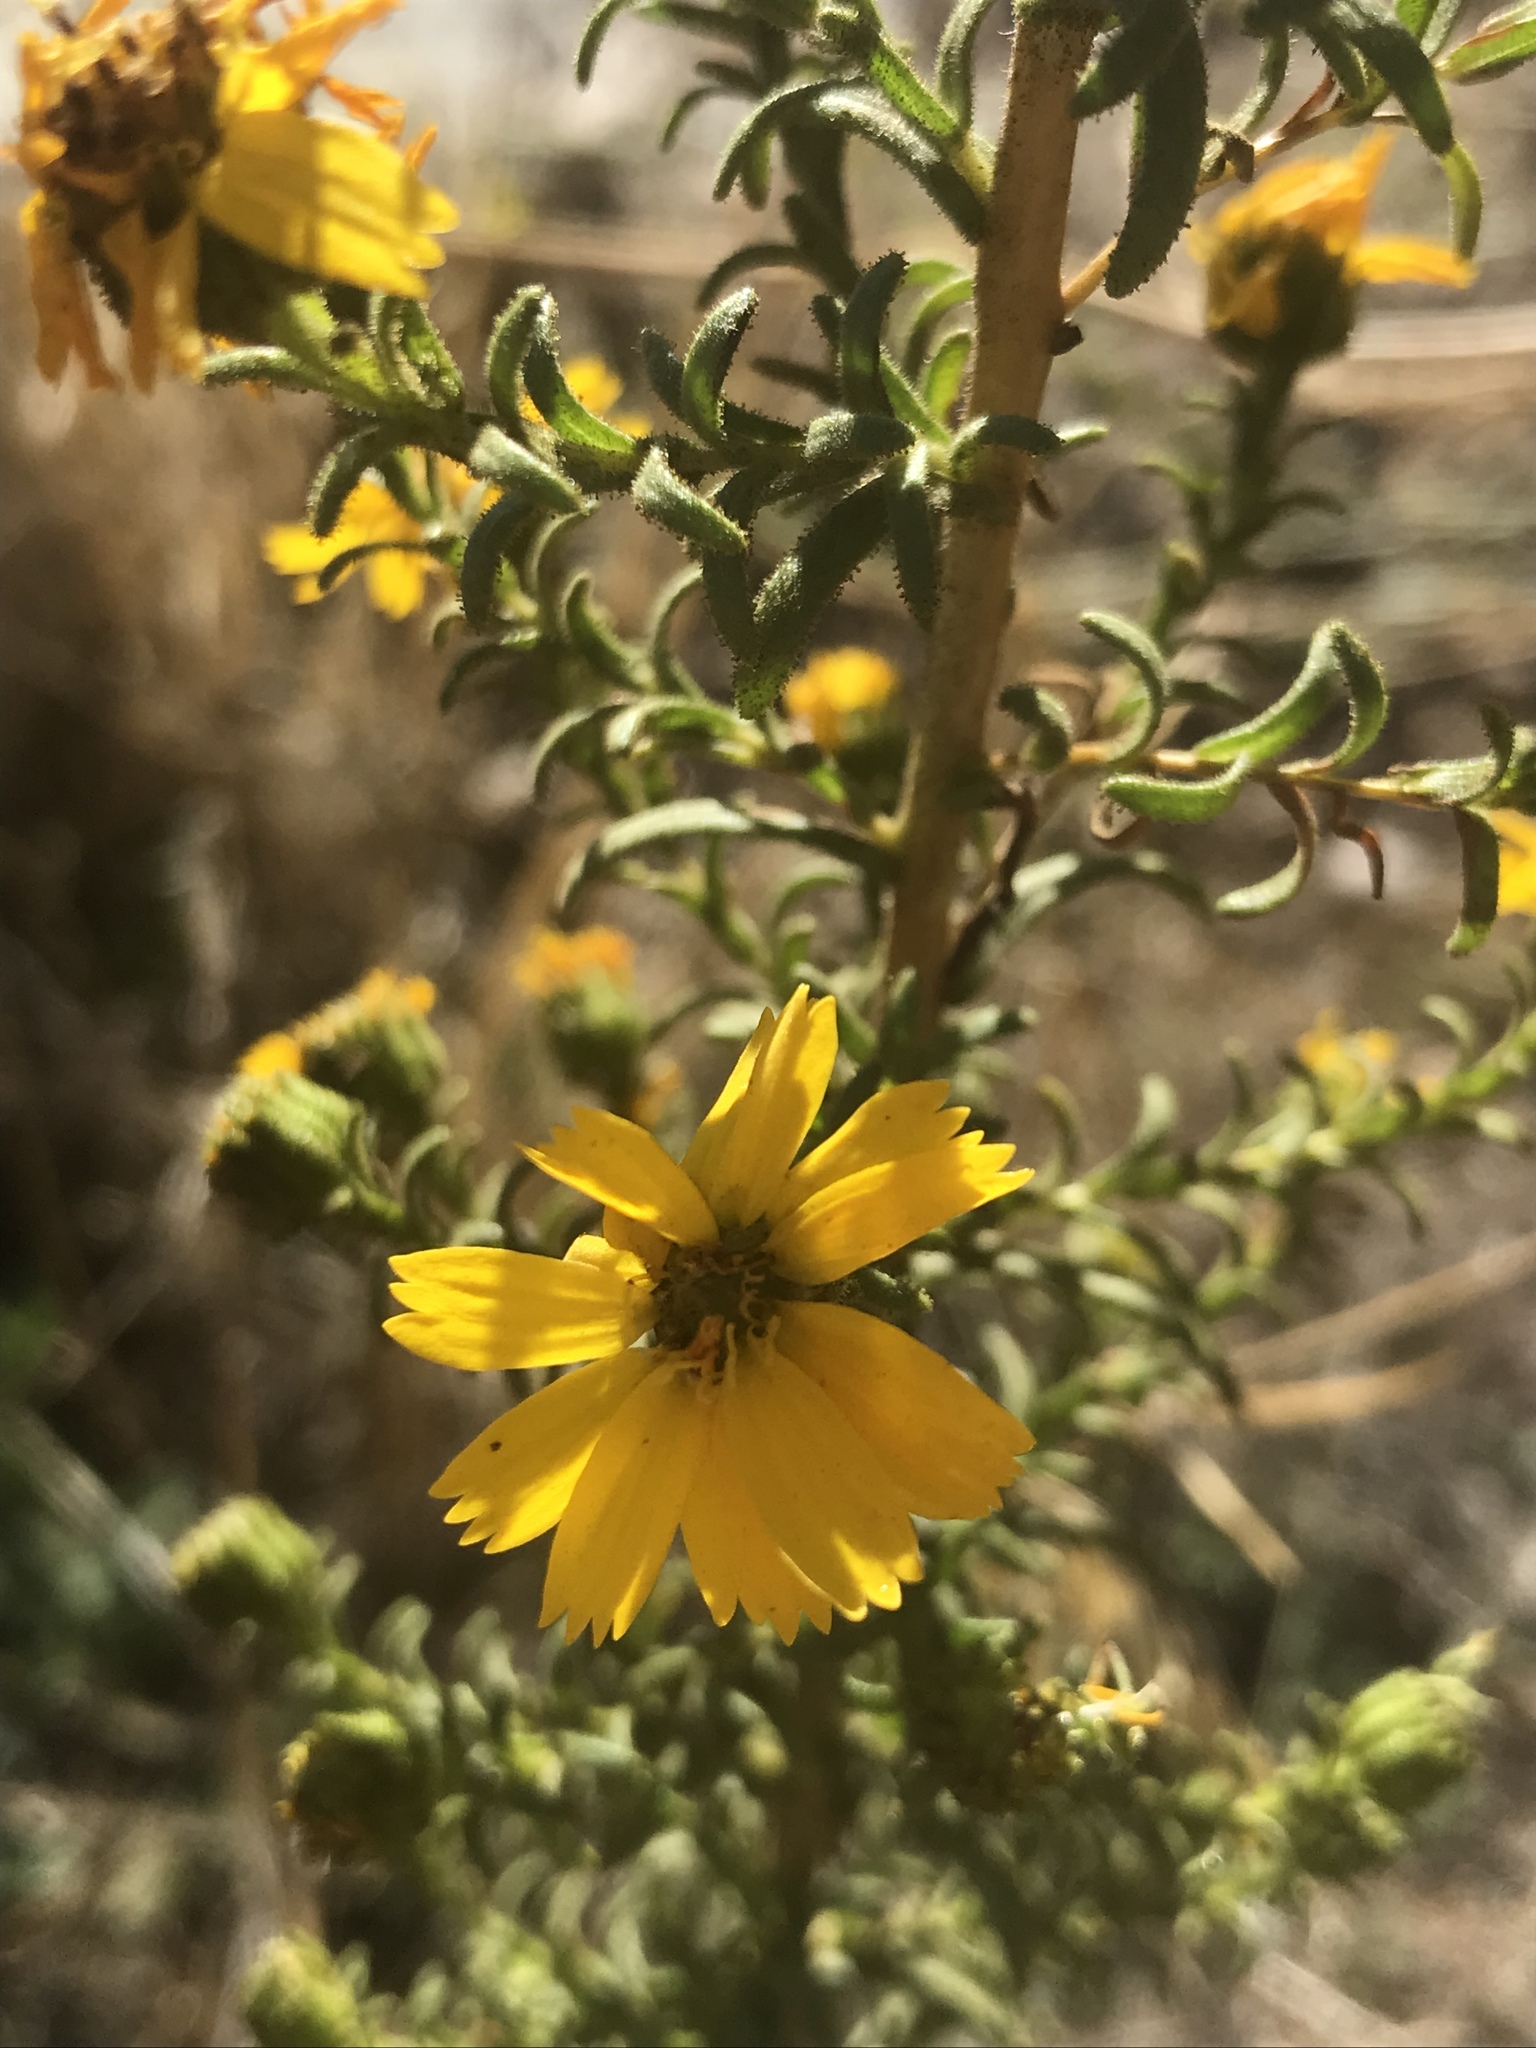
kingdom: Plantae
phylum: Tracheophyta
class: Magnoliopsida
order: Asterales
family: Asteraceae
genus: Deinandra
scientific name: Deinandra floribunda
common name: Tecate tarweed
